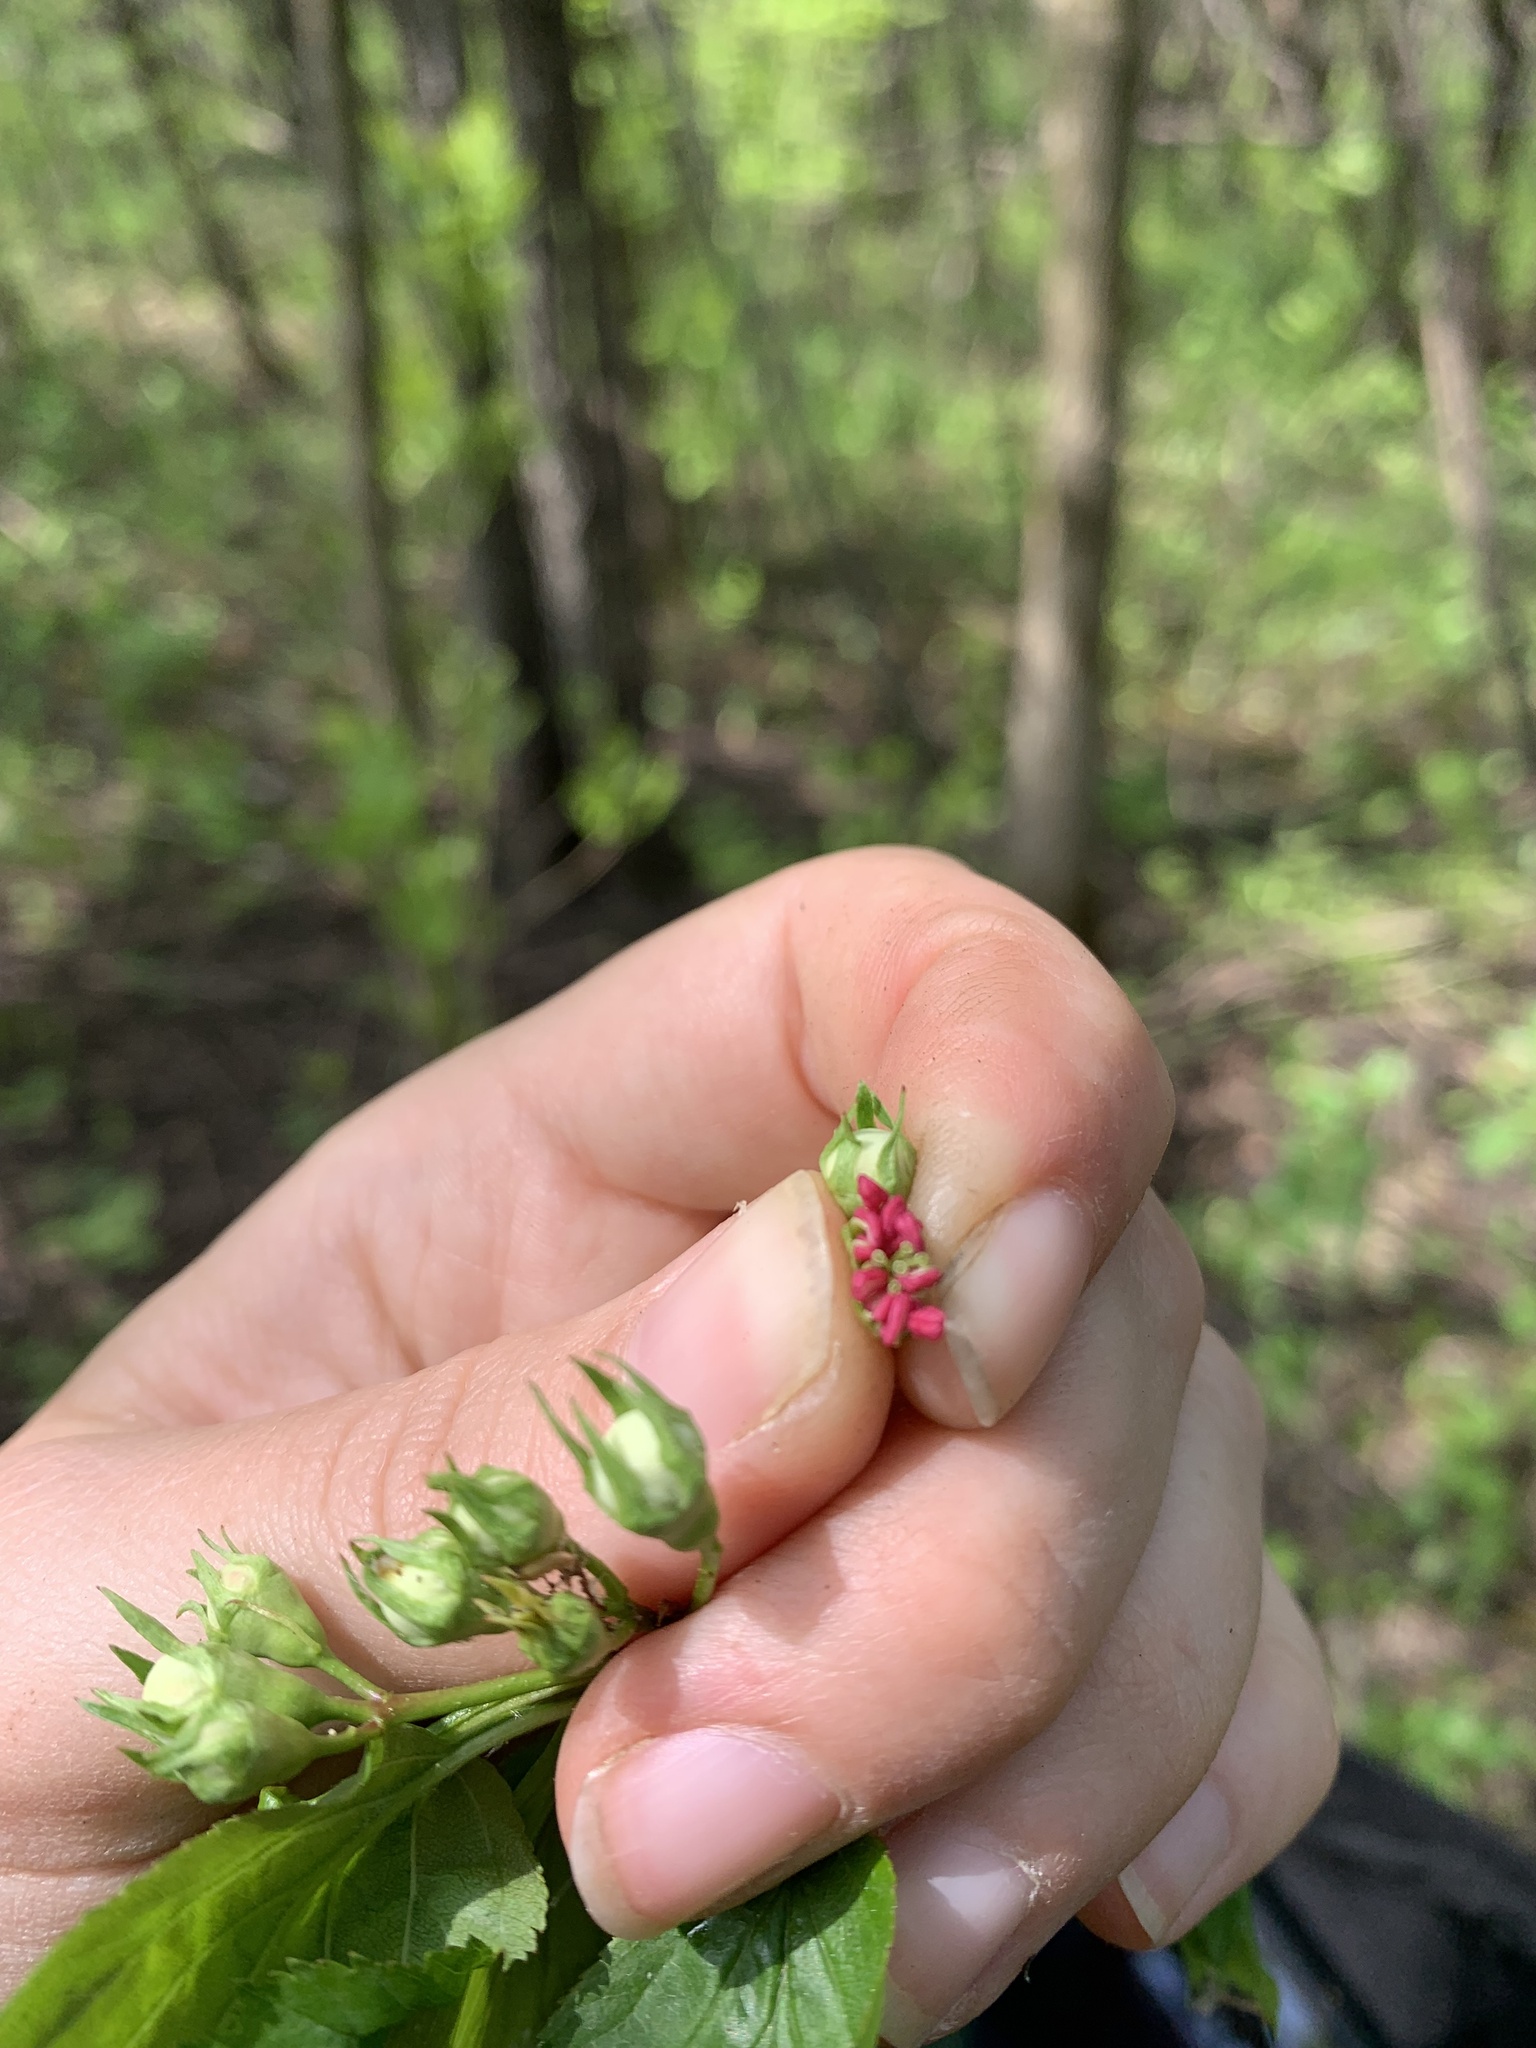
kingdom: Plantae
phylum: Tracheophyta
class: Magnoliopsida
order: Rosales
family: Rosaceae
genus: Crataegus
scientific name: Crataegus suborbiculata
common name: Caughnawaga hawthorn
